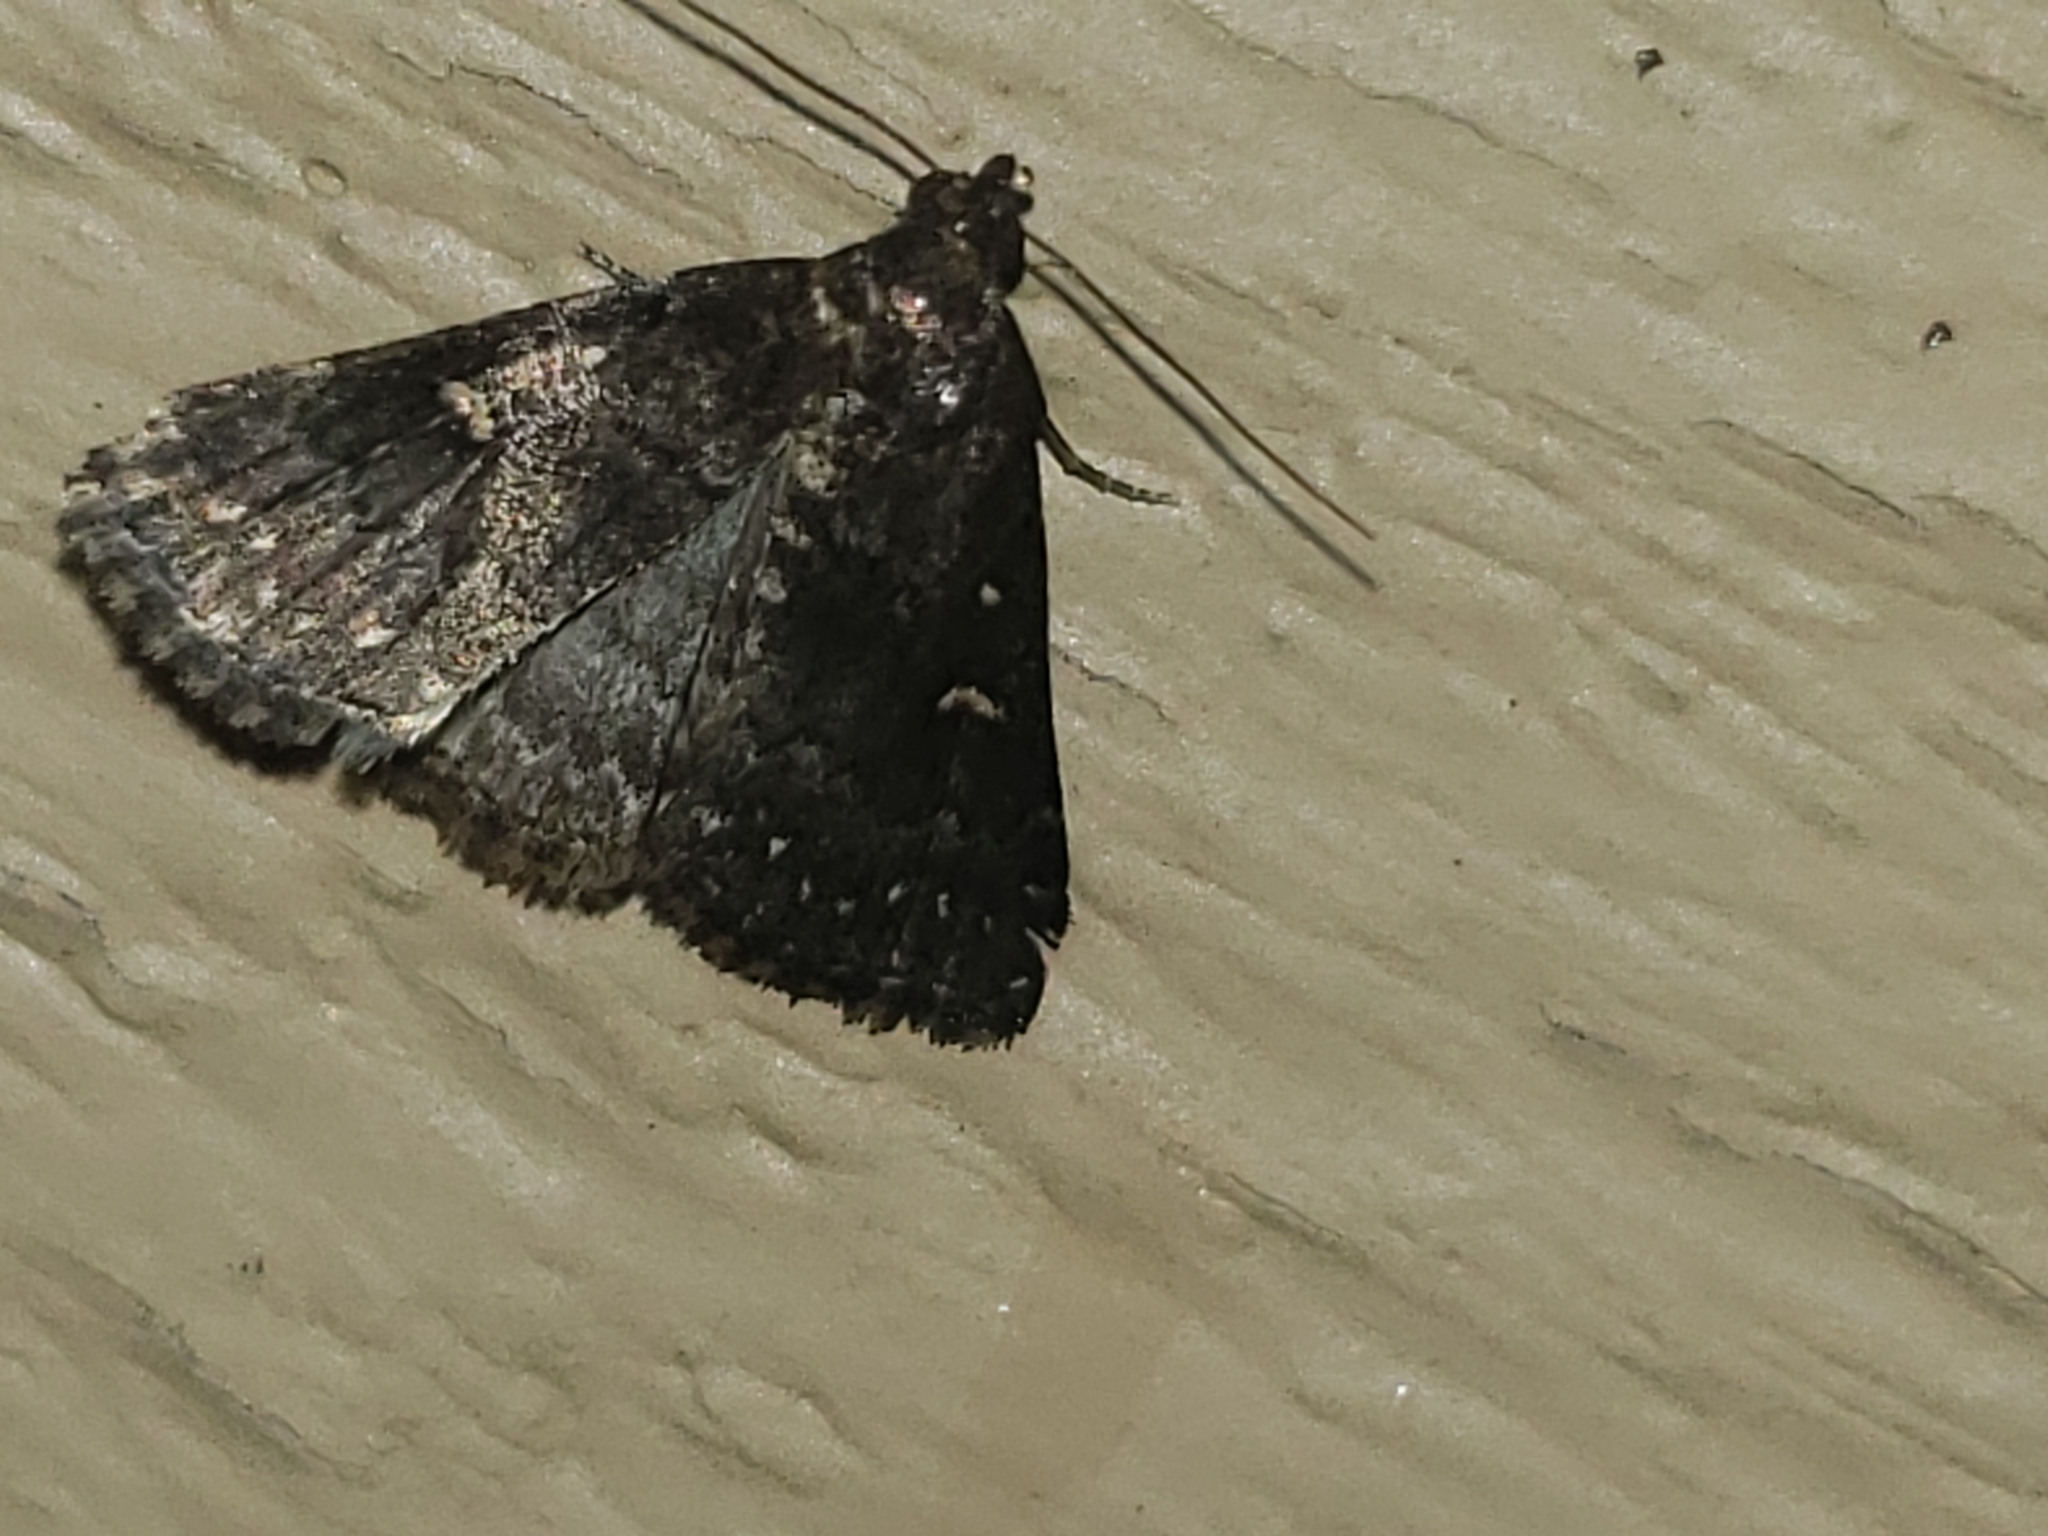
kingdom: Animalia
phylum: Arthropoda
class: Insecta
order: Lepidoptera
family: Erebidae
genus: Tetanolita
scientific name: Tetanolita mynesalis
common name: Smoky tetanolita moth
